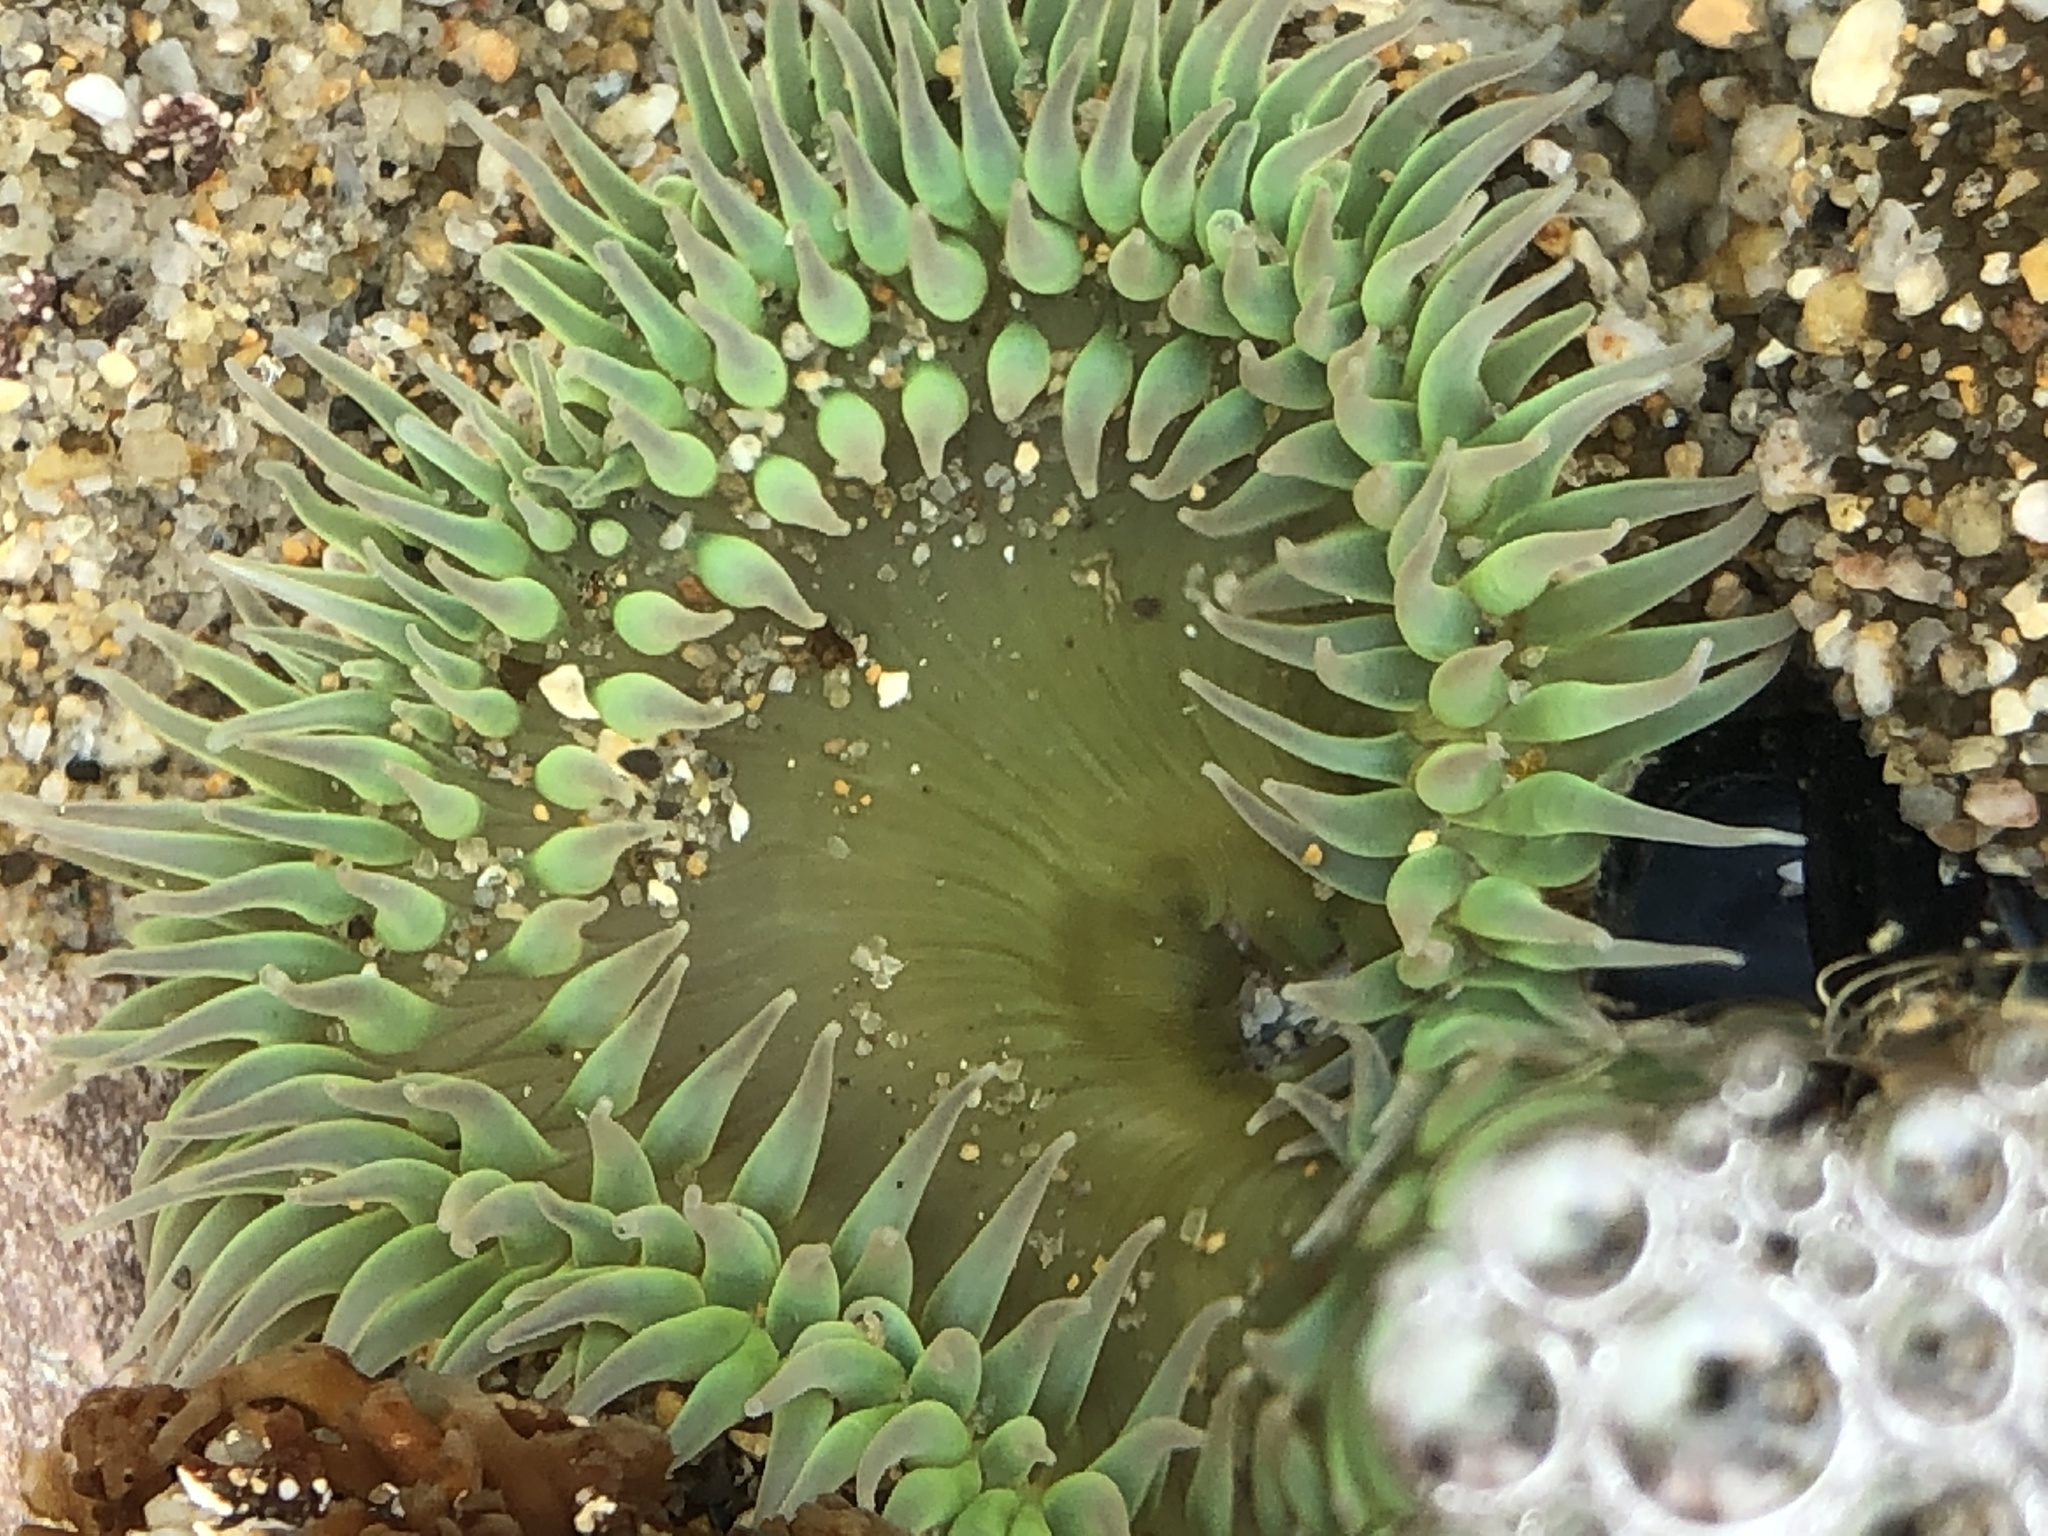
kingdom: Animalia
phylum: Cnidaria
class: Anthozoa
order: Actiniaria
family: Actiniidae
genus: Anthopleura
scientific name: Anthopleura xanthogrammica
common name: Giant green anemone
